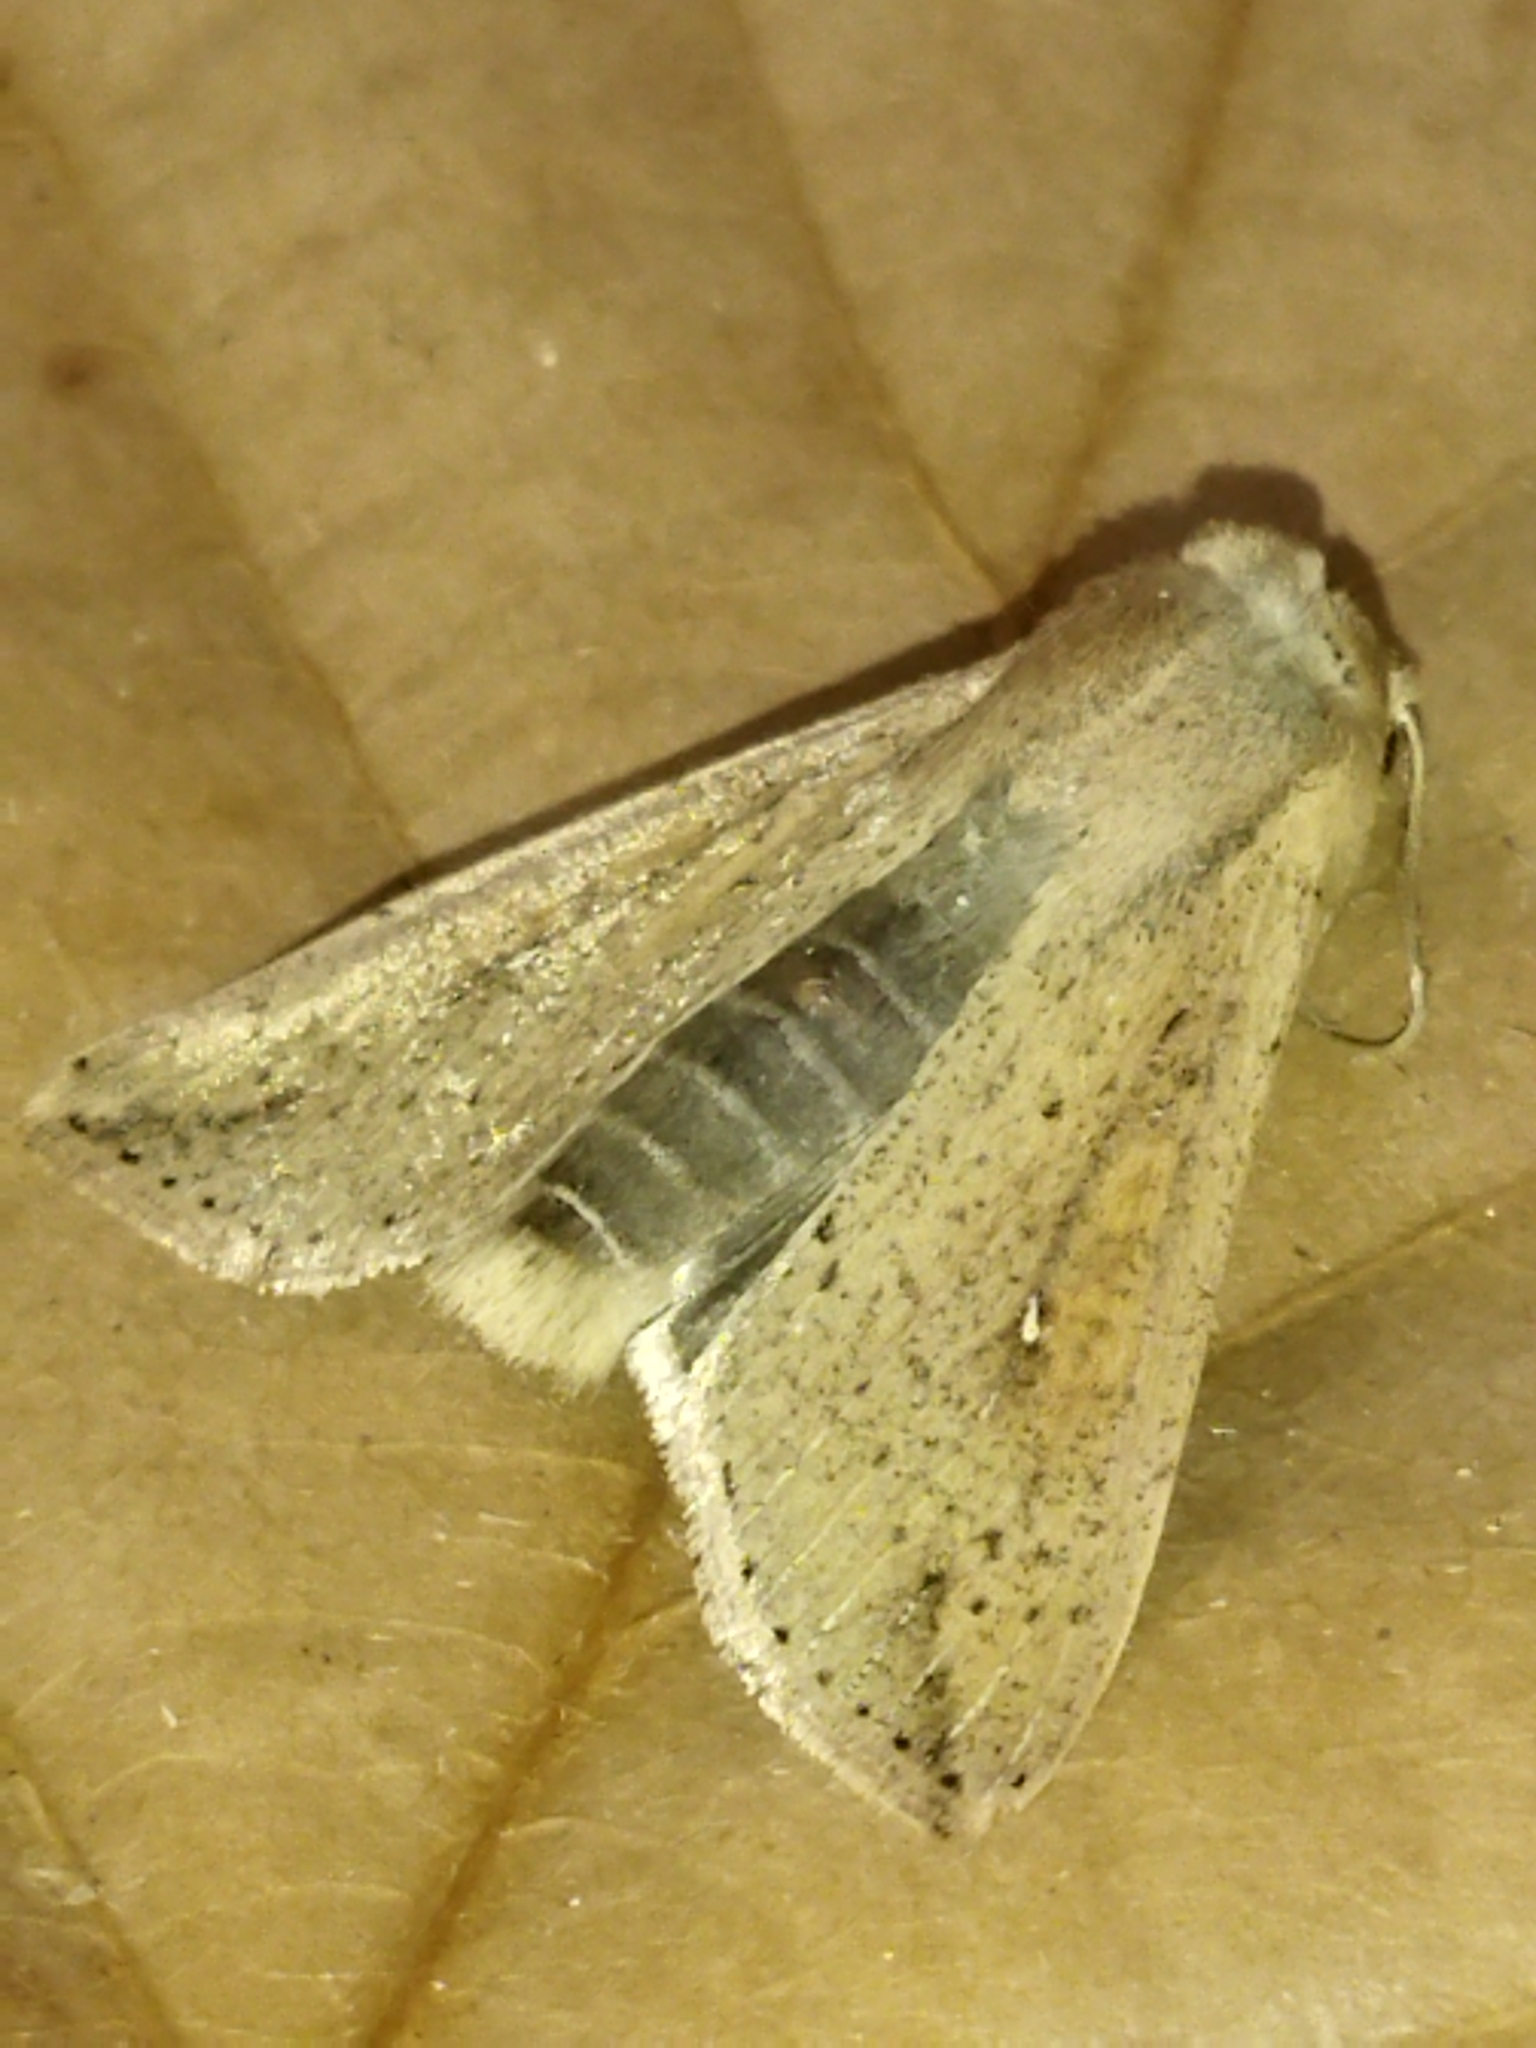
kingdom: Animalia
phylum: Arthropoda
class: Insecta
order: Lepidoptera
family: Noctuidae
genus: Mythimna
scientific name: Mythimna unipuncta
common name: White-speck
